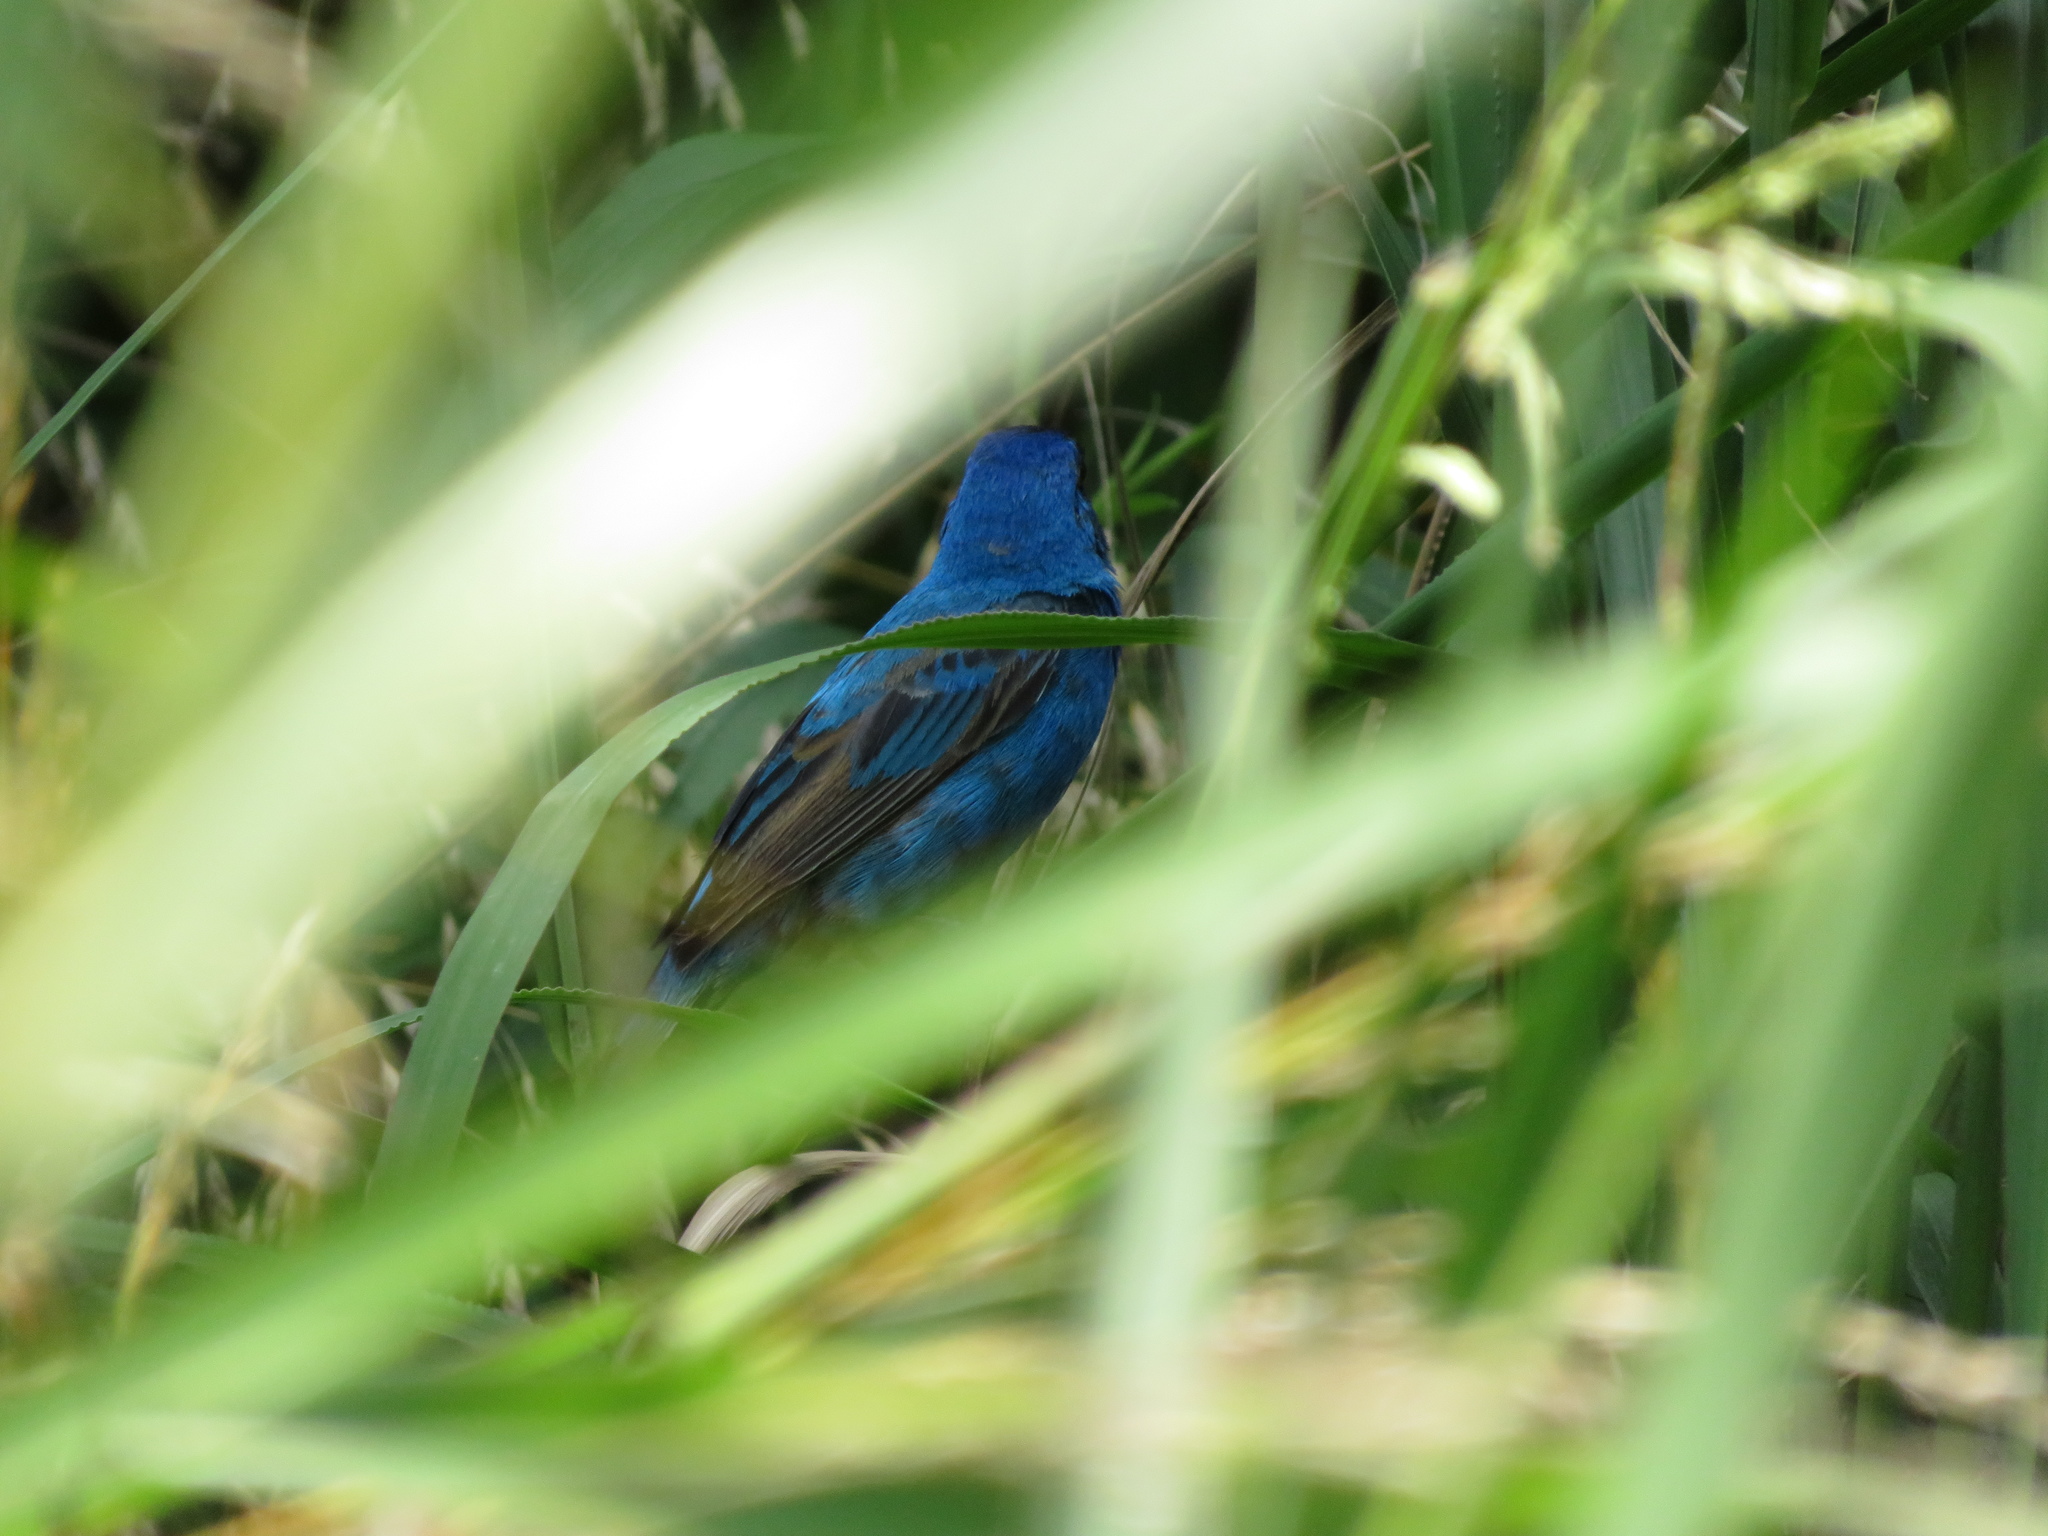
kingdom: Animalia
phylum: Chordata
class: Aves
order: Passeriformes
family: Cardinalidae
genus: Passerina
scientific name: Passerina cyanea
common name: Indigo bunting
